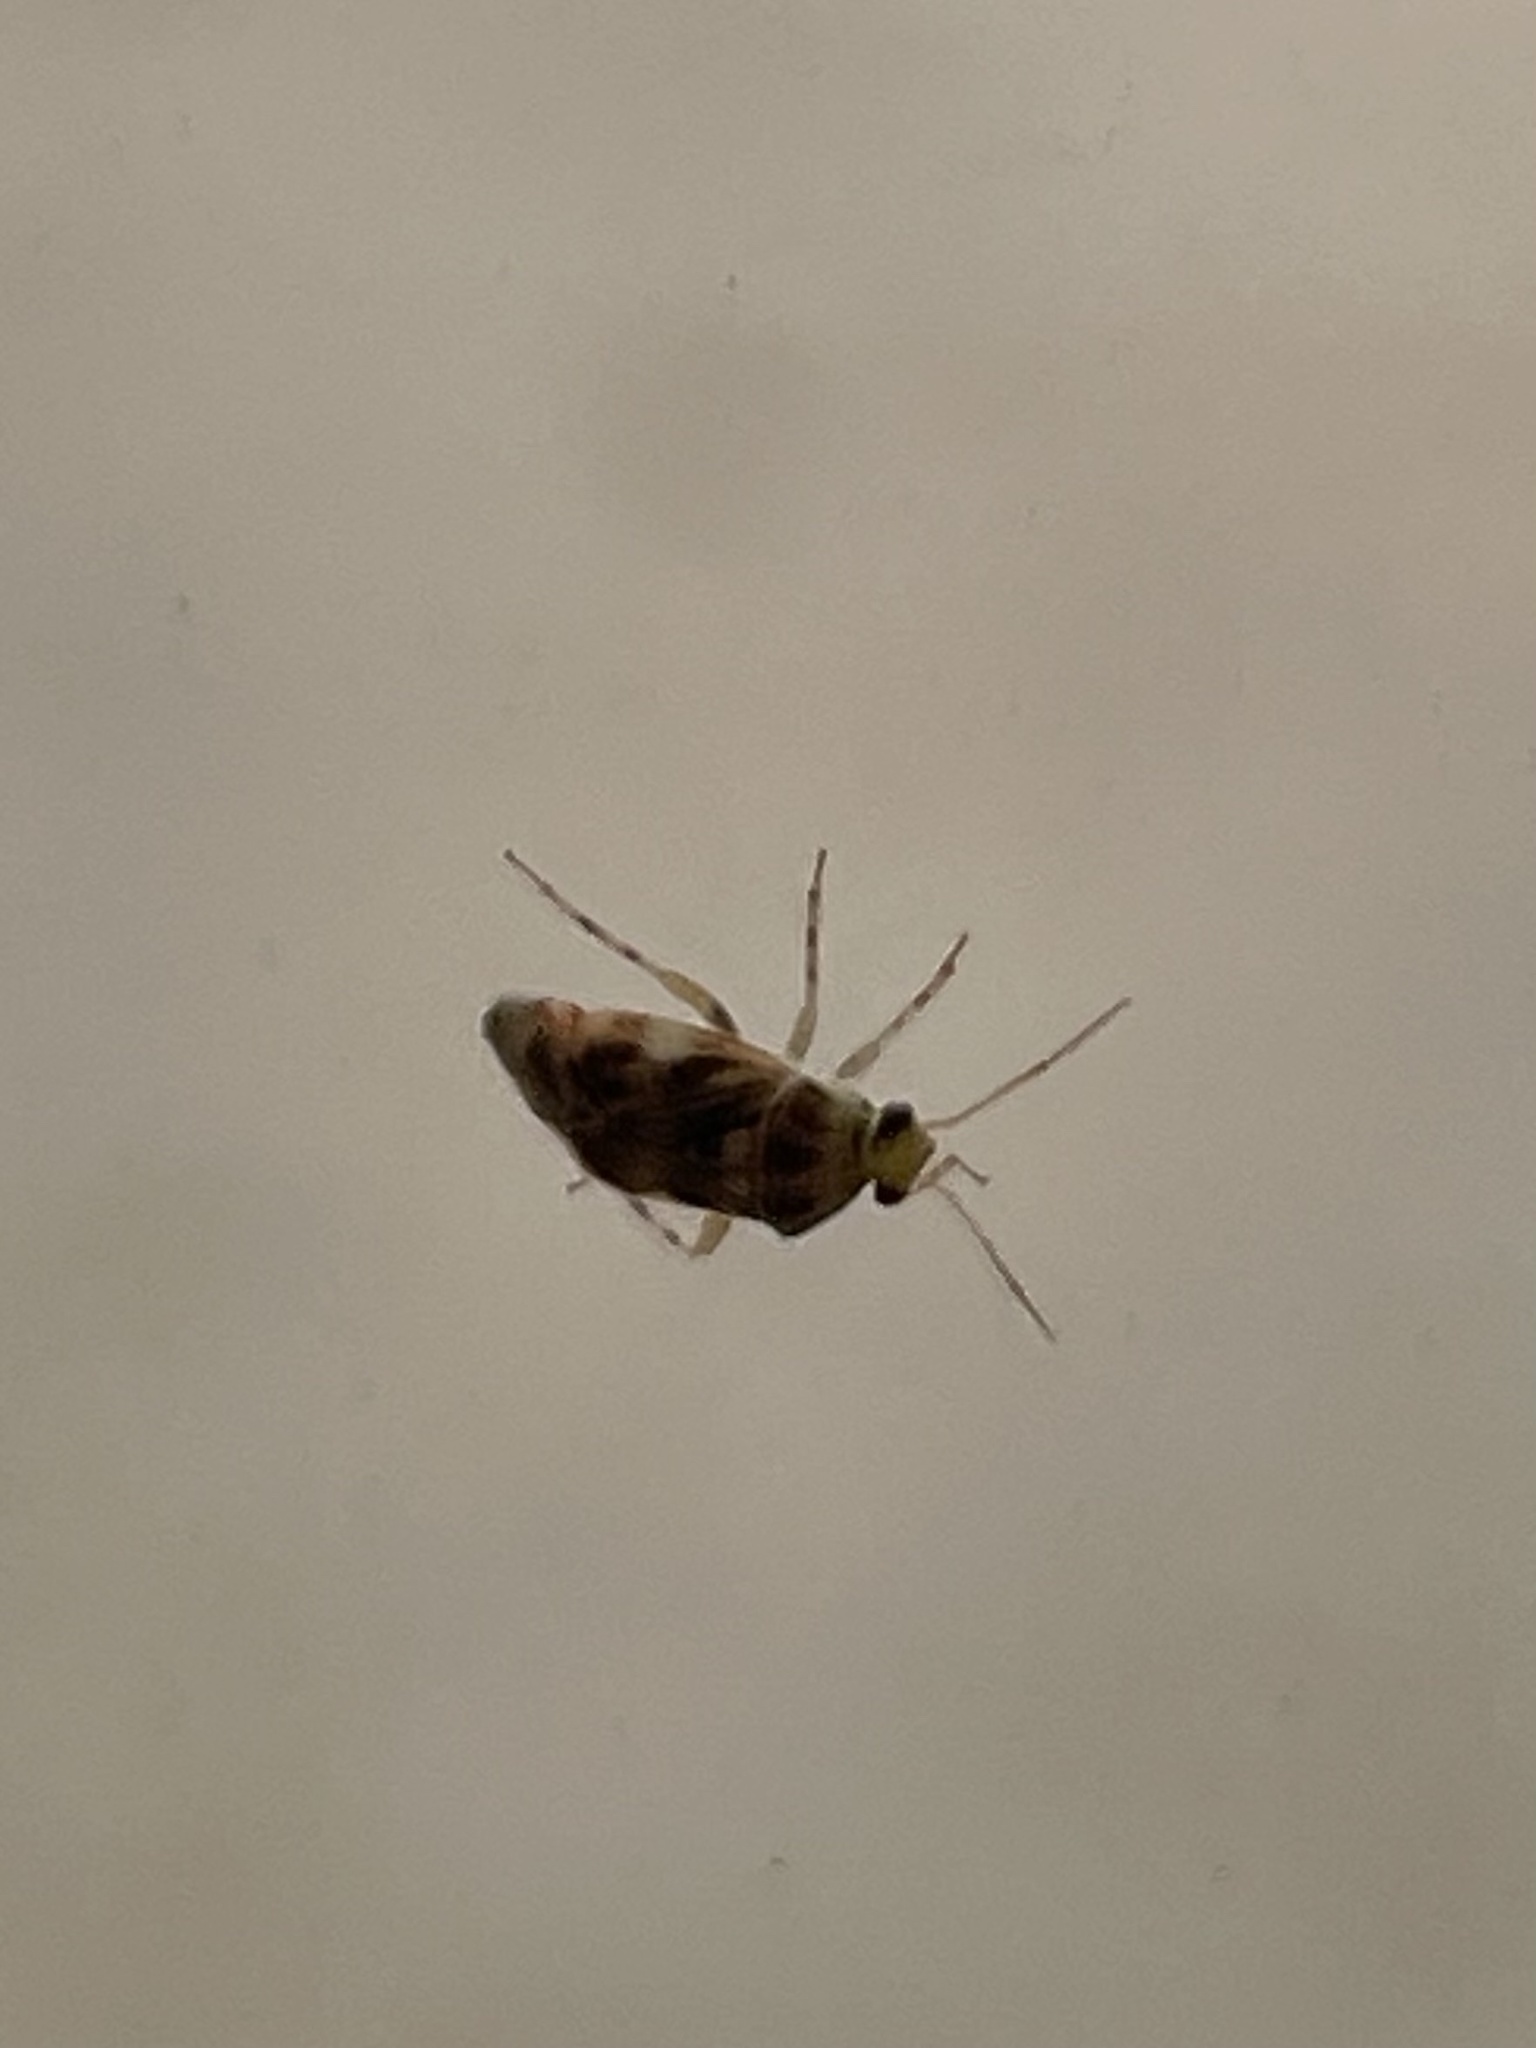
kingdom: Animalia
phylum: Arthropoda
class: Insecta
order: Hemiptera
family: Miridae
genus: Tropidosteptes
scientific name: Tropidosteptes quercicola
